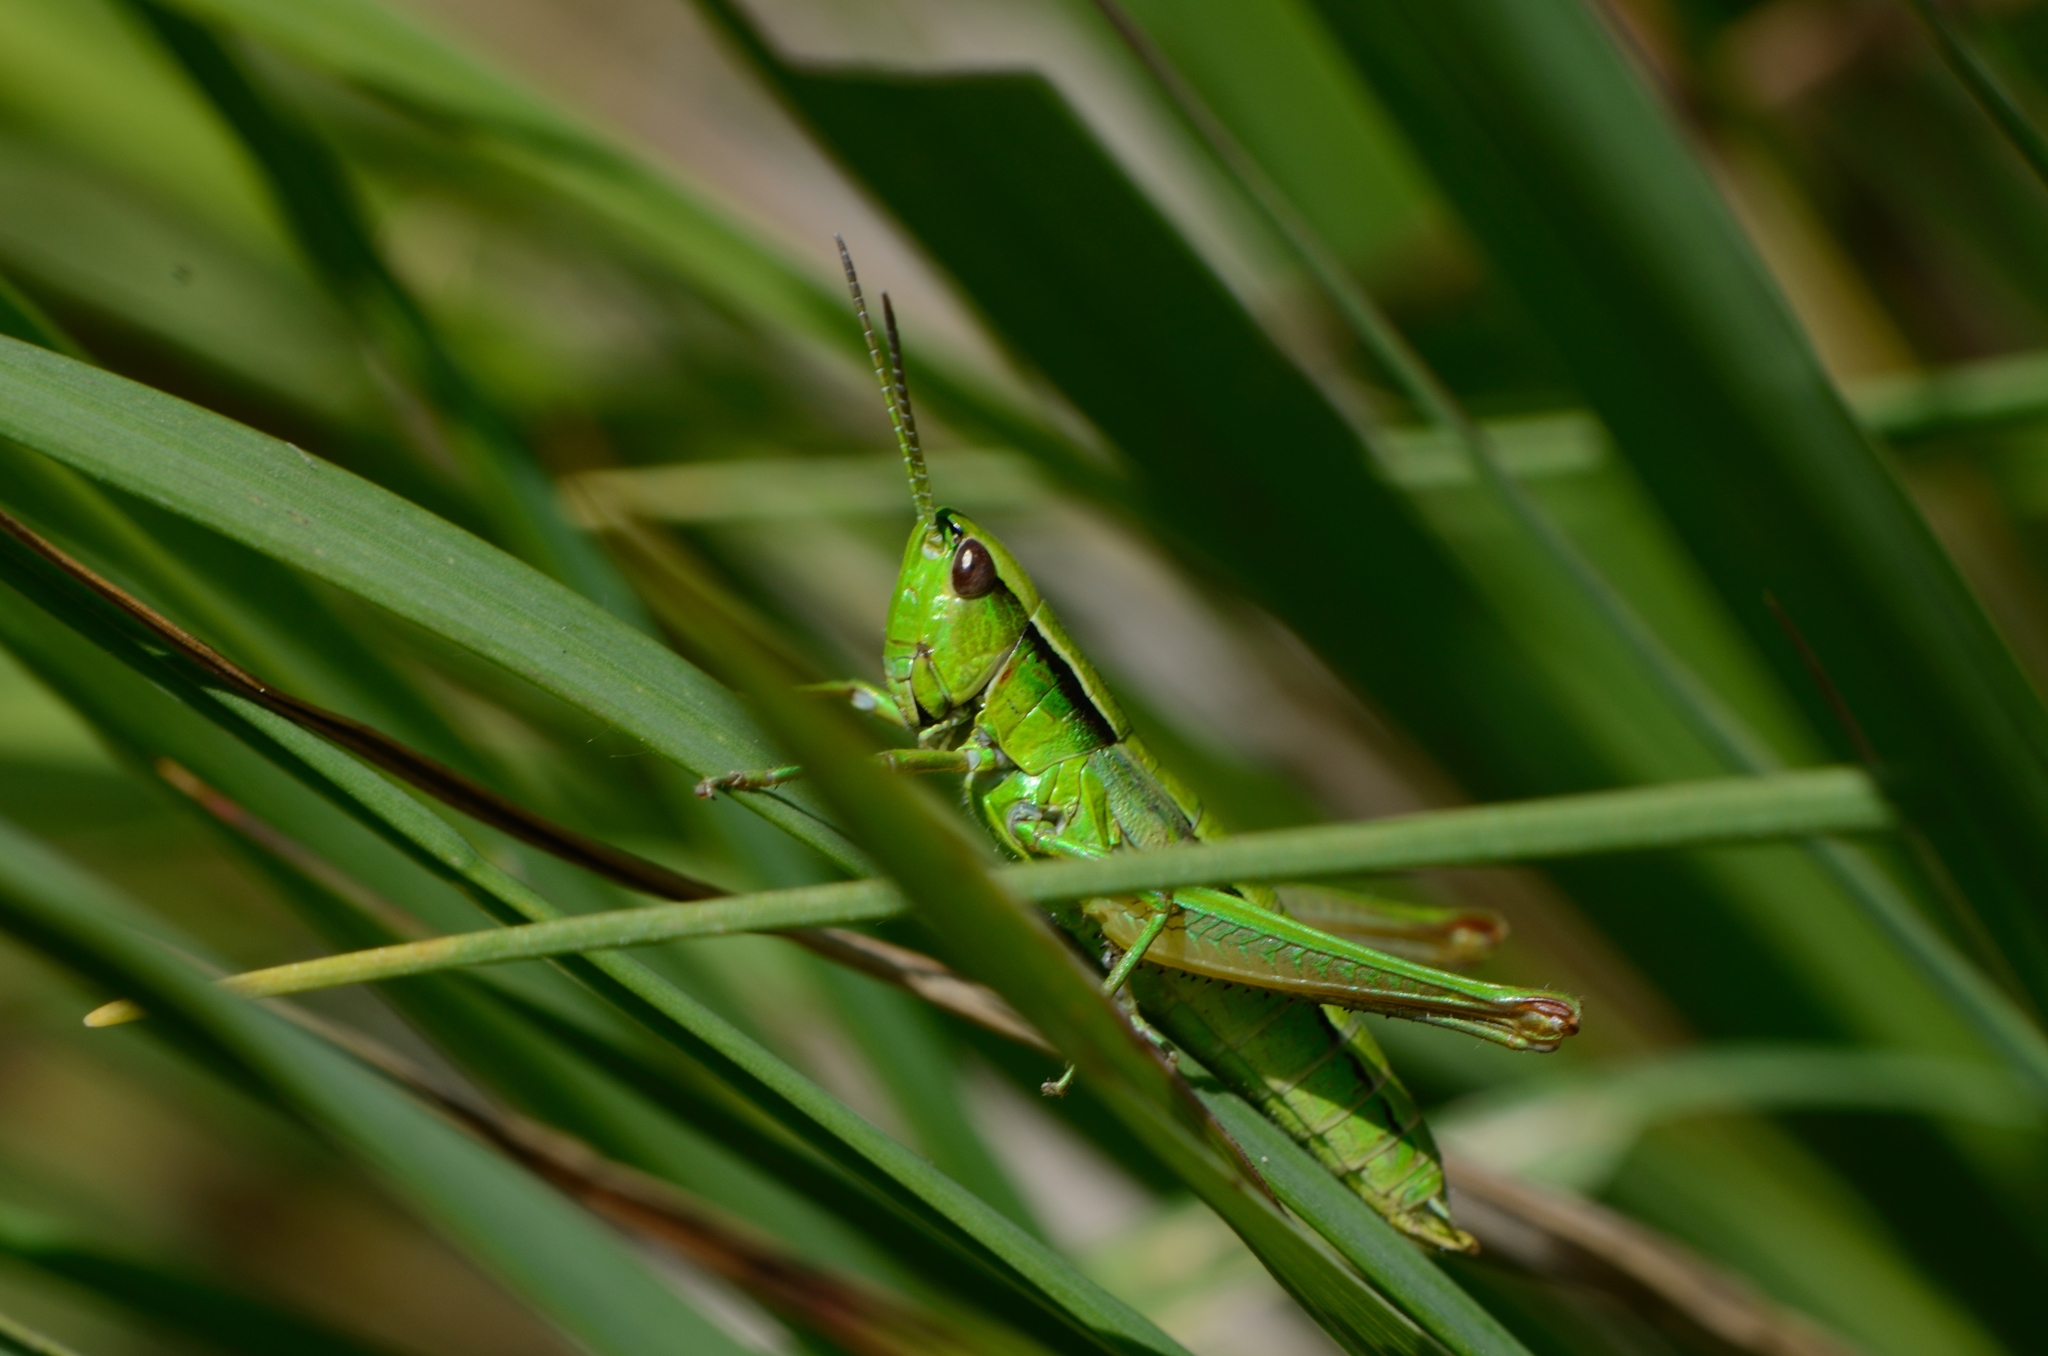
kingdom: Animalia
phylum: Arthropoda
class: Insecta
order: Orthoptera
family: Acrididae
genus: Euthystira
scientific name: Euthystira brachyptera
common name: Small gold grasshopper
